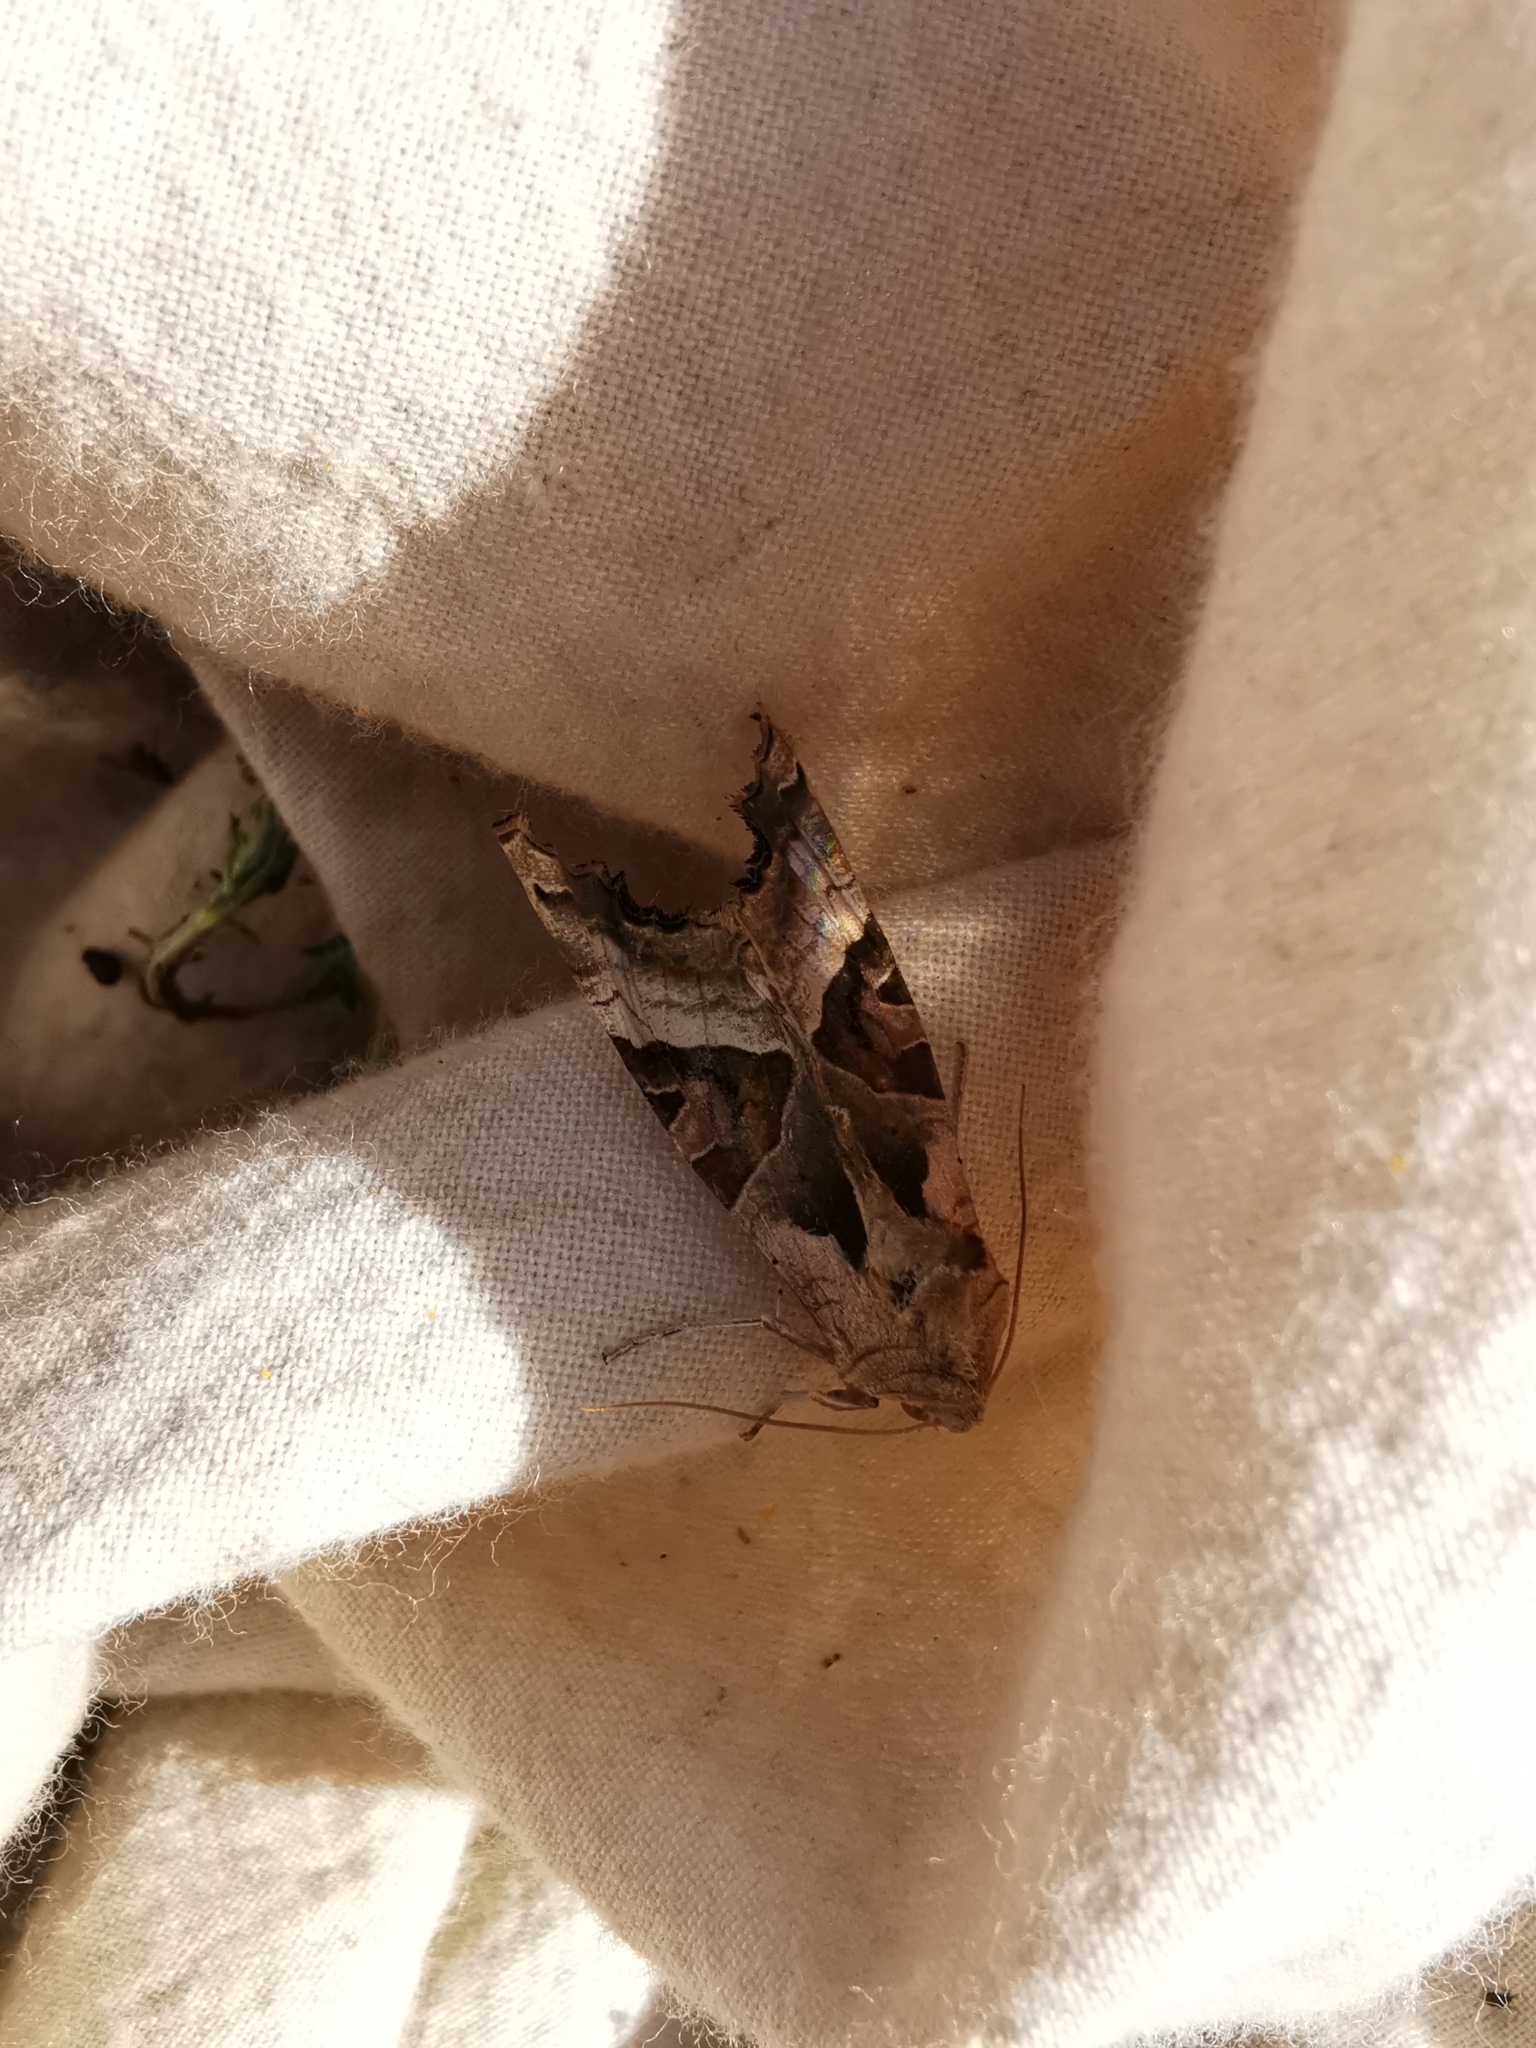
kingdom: Animalia
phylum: Arthropoda
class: Insecta
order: Lepidoptera
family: Noctuidae
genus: Phlogophora
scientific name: Phlogophora meticulosa
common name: Angle shades
